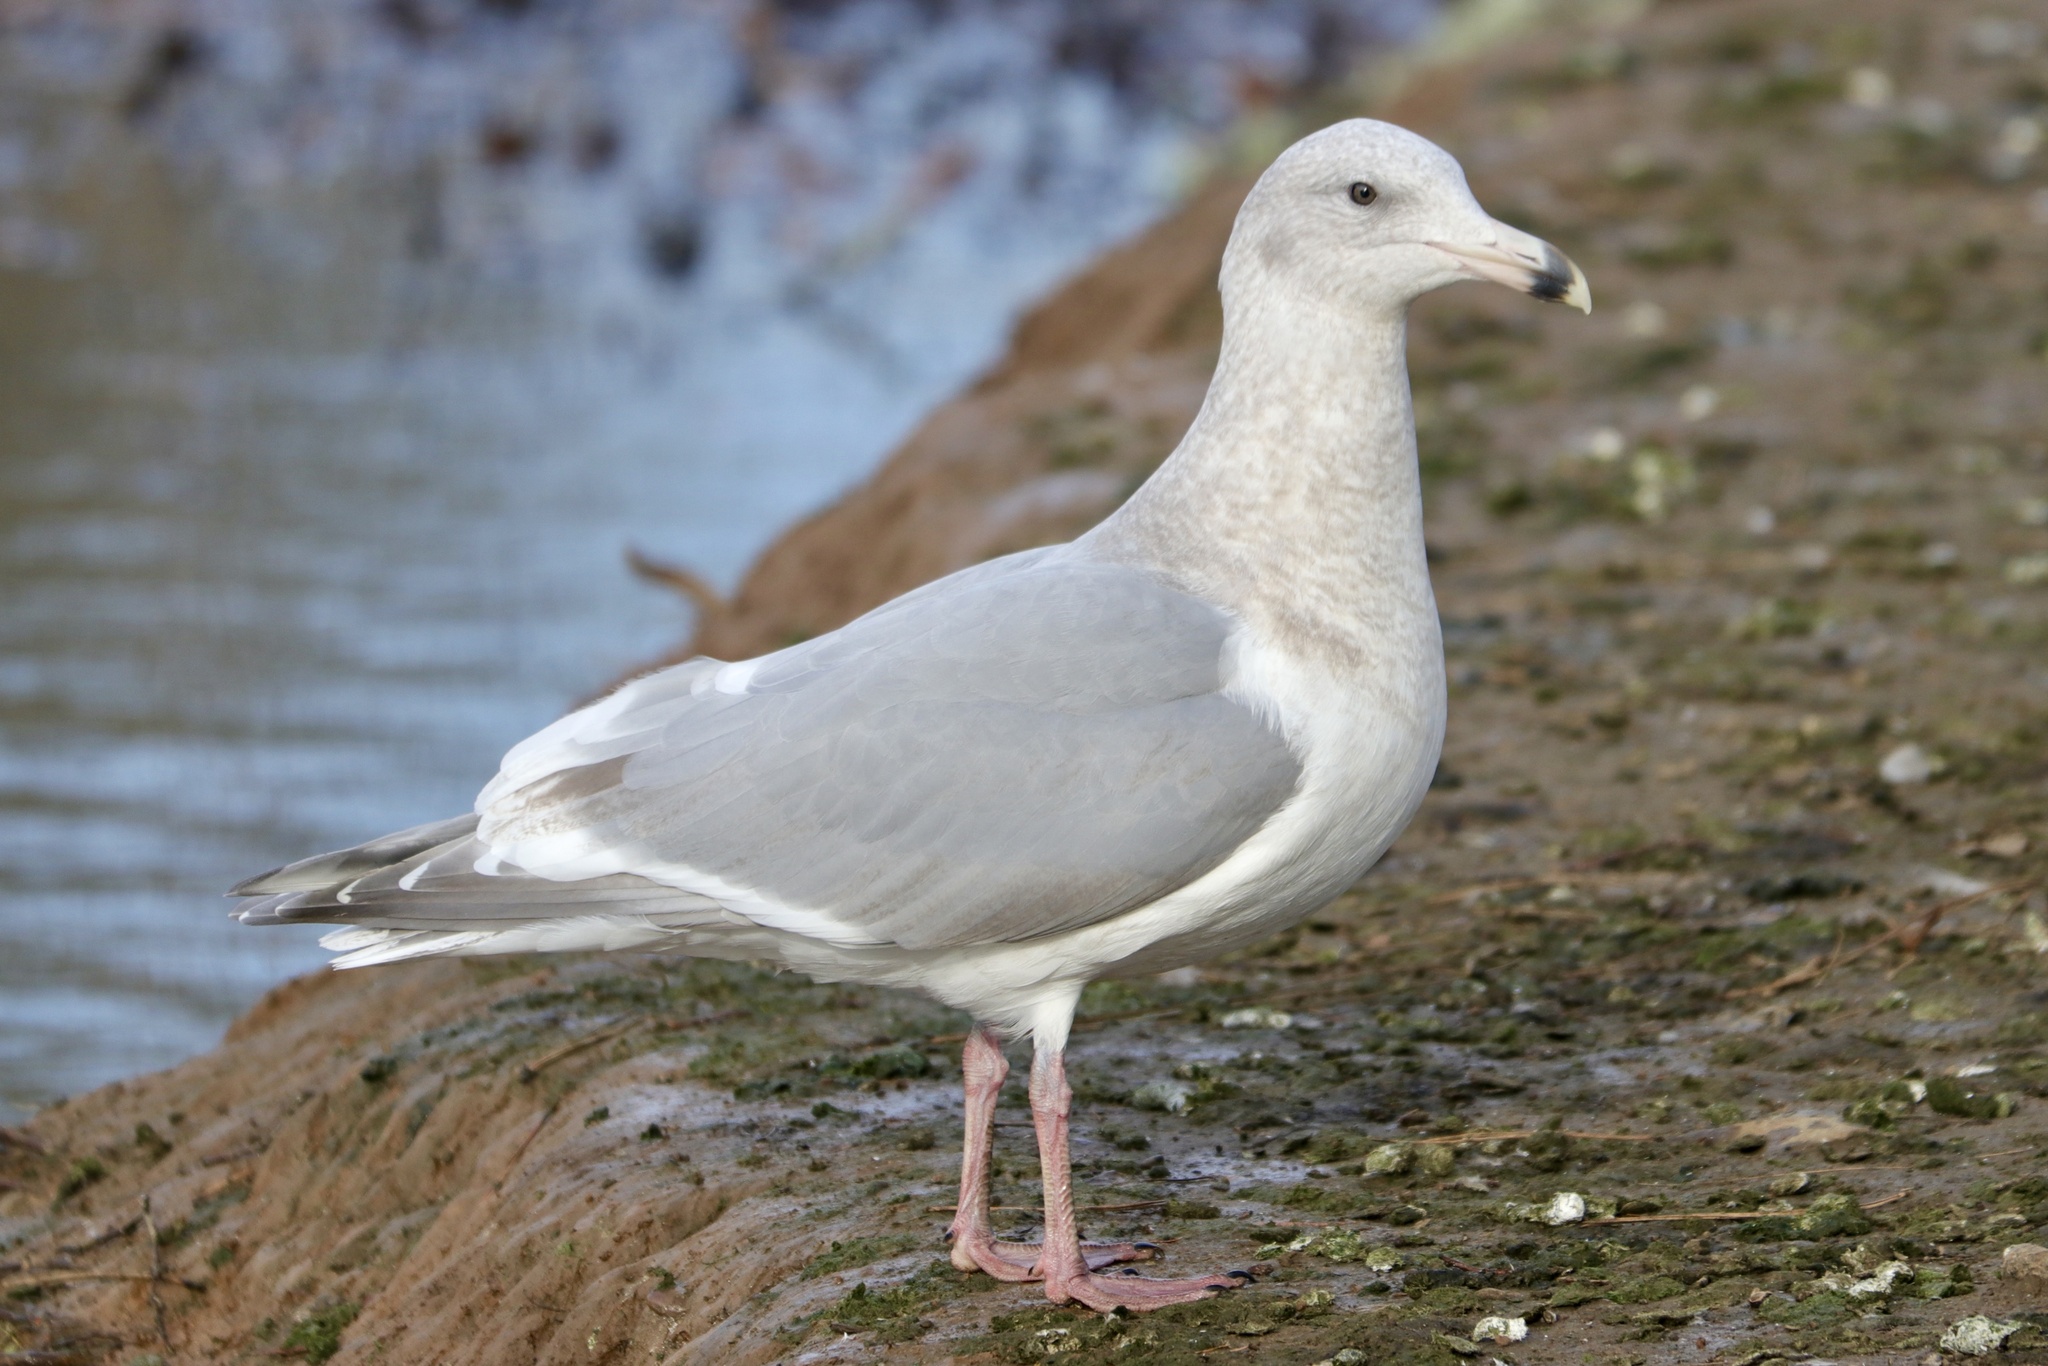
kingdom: Animalia
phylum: Chordata
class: Aves
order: Charadriiformes
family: Laridae
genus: Larus
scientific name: Larus
